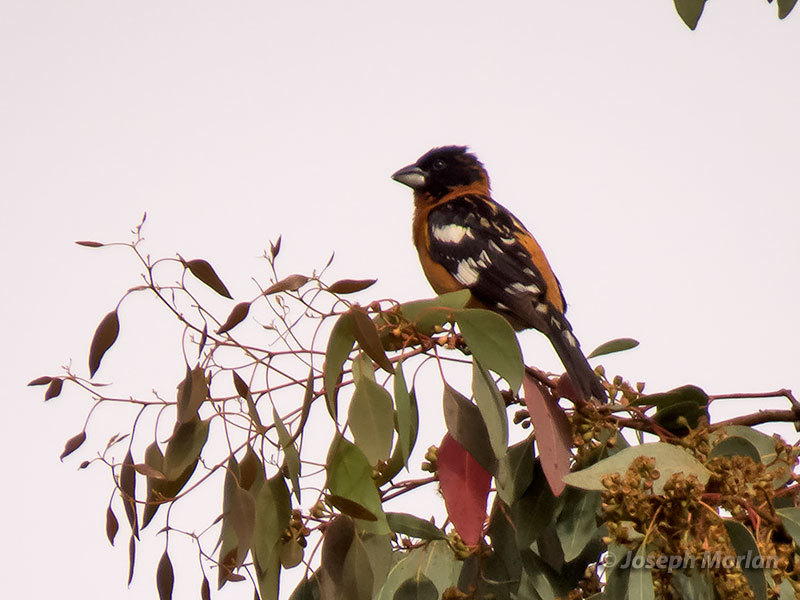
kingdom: Animalia
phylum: Chordata
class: Aves
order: Passeriformes
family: Cardinalidae
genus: Pheucticus
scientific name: Pheucticus melanocephalus
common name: Black-headed grosbeak
